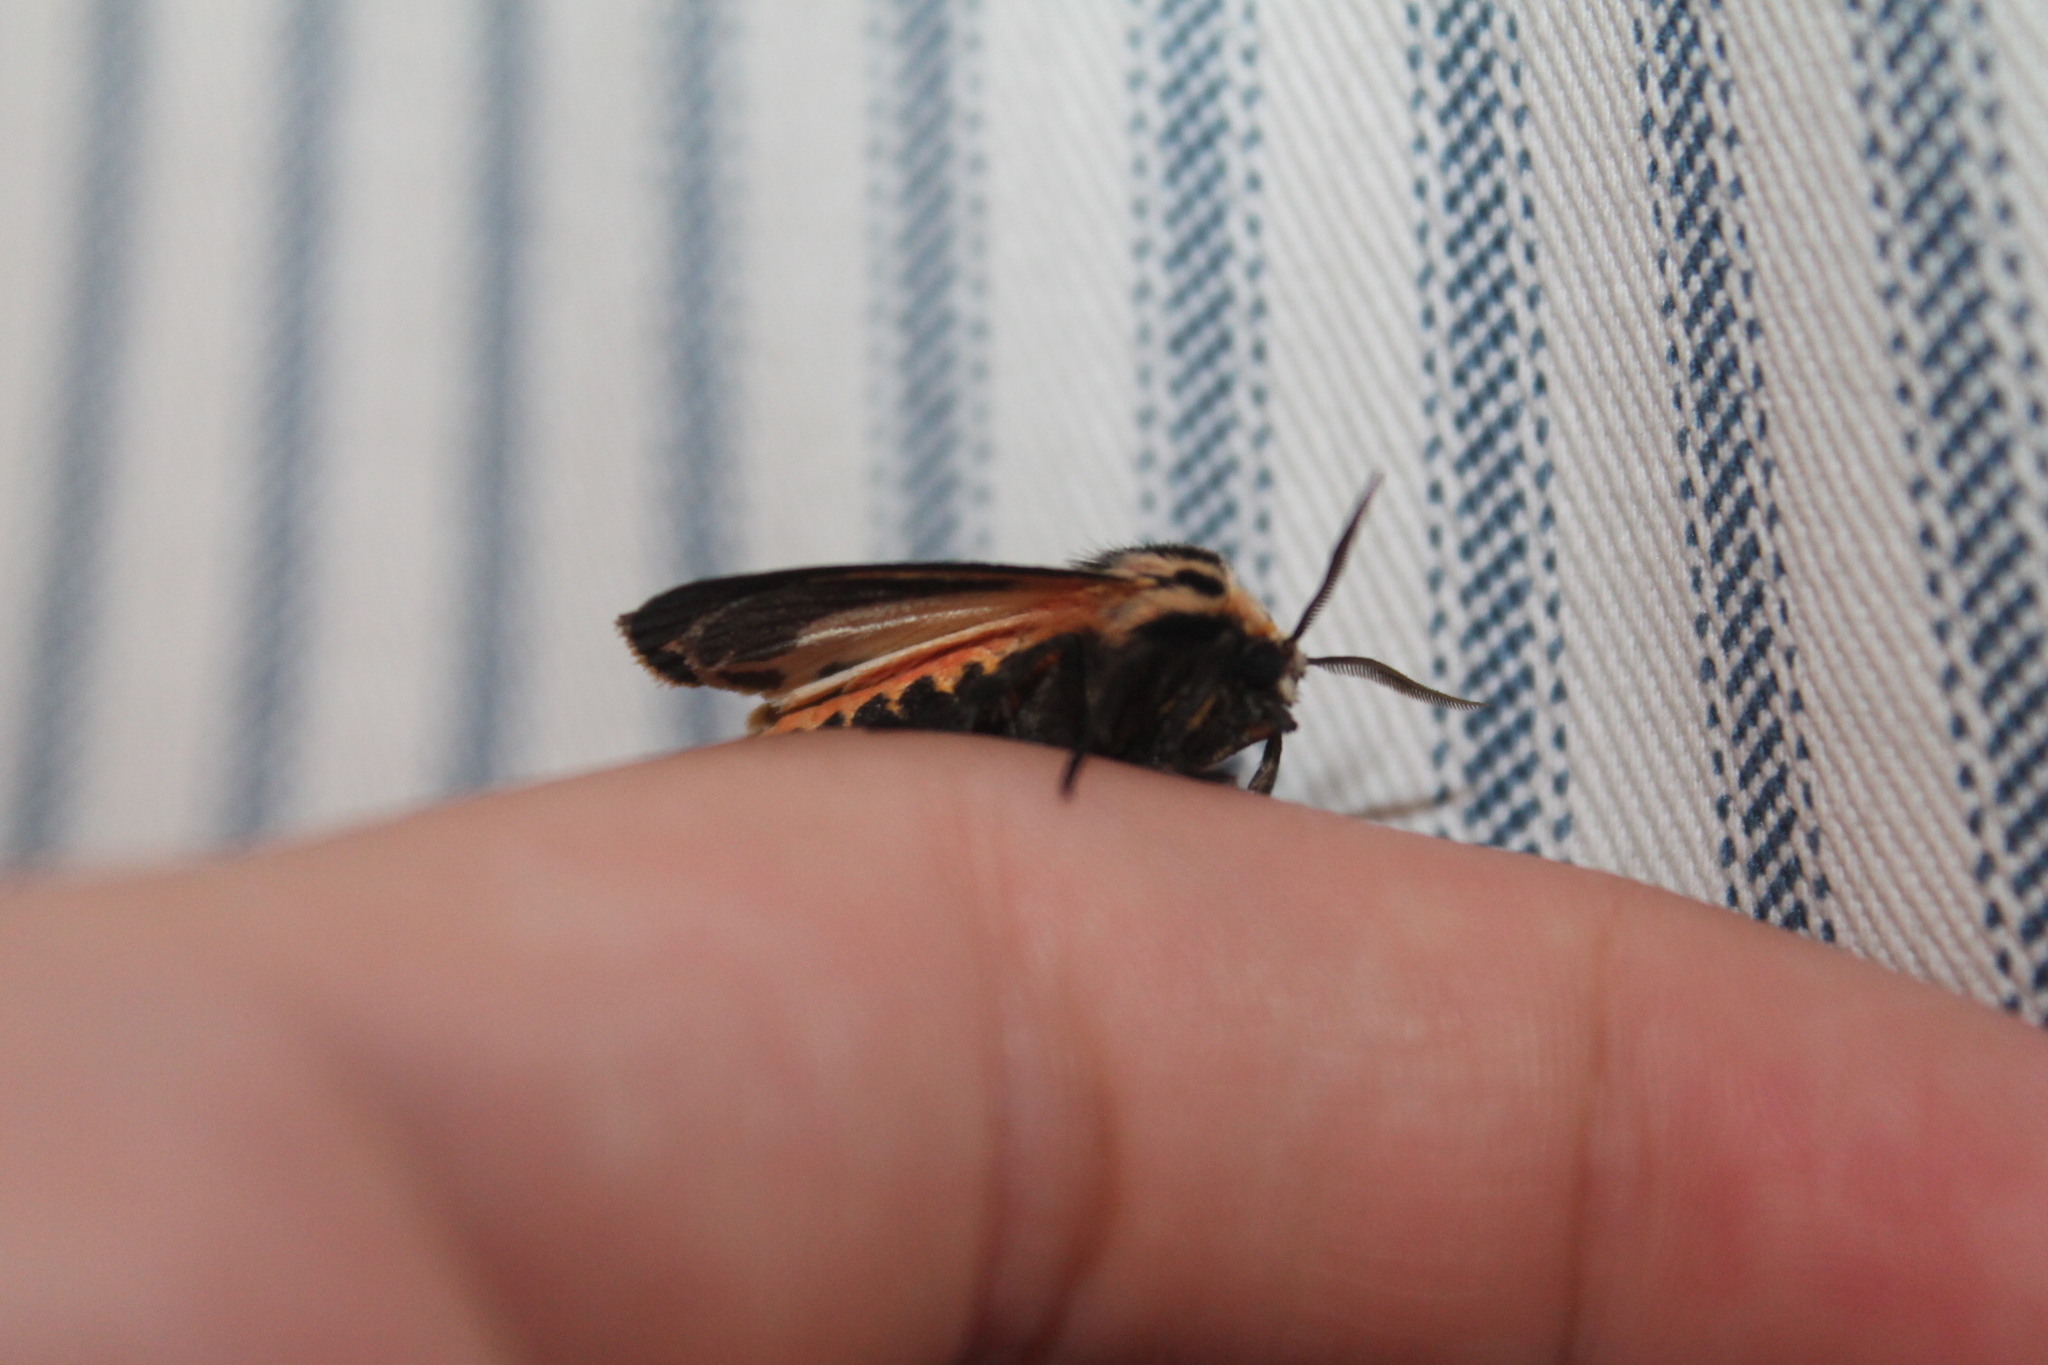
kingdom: Animalia
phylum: Arthropoda
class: Insecta
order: Lepidoptera
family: Erebidae
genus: Apantesis
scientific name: Apantesis phalerata
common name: Harnessed tiger moth
